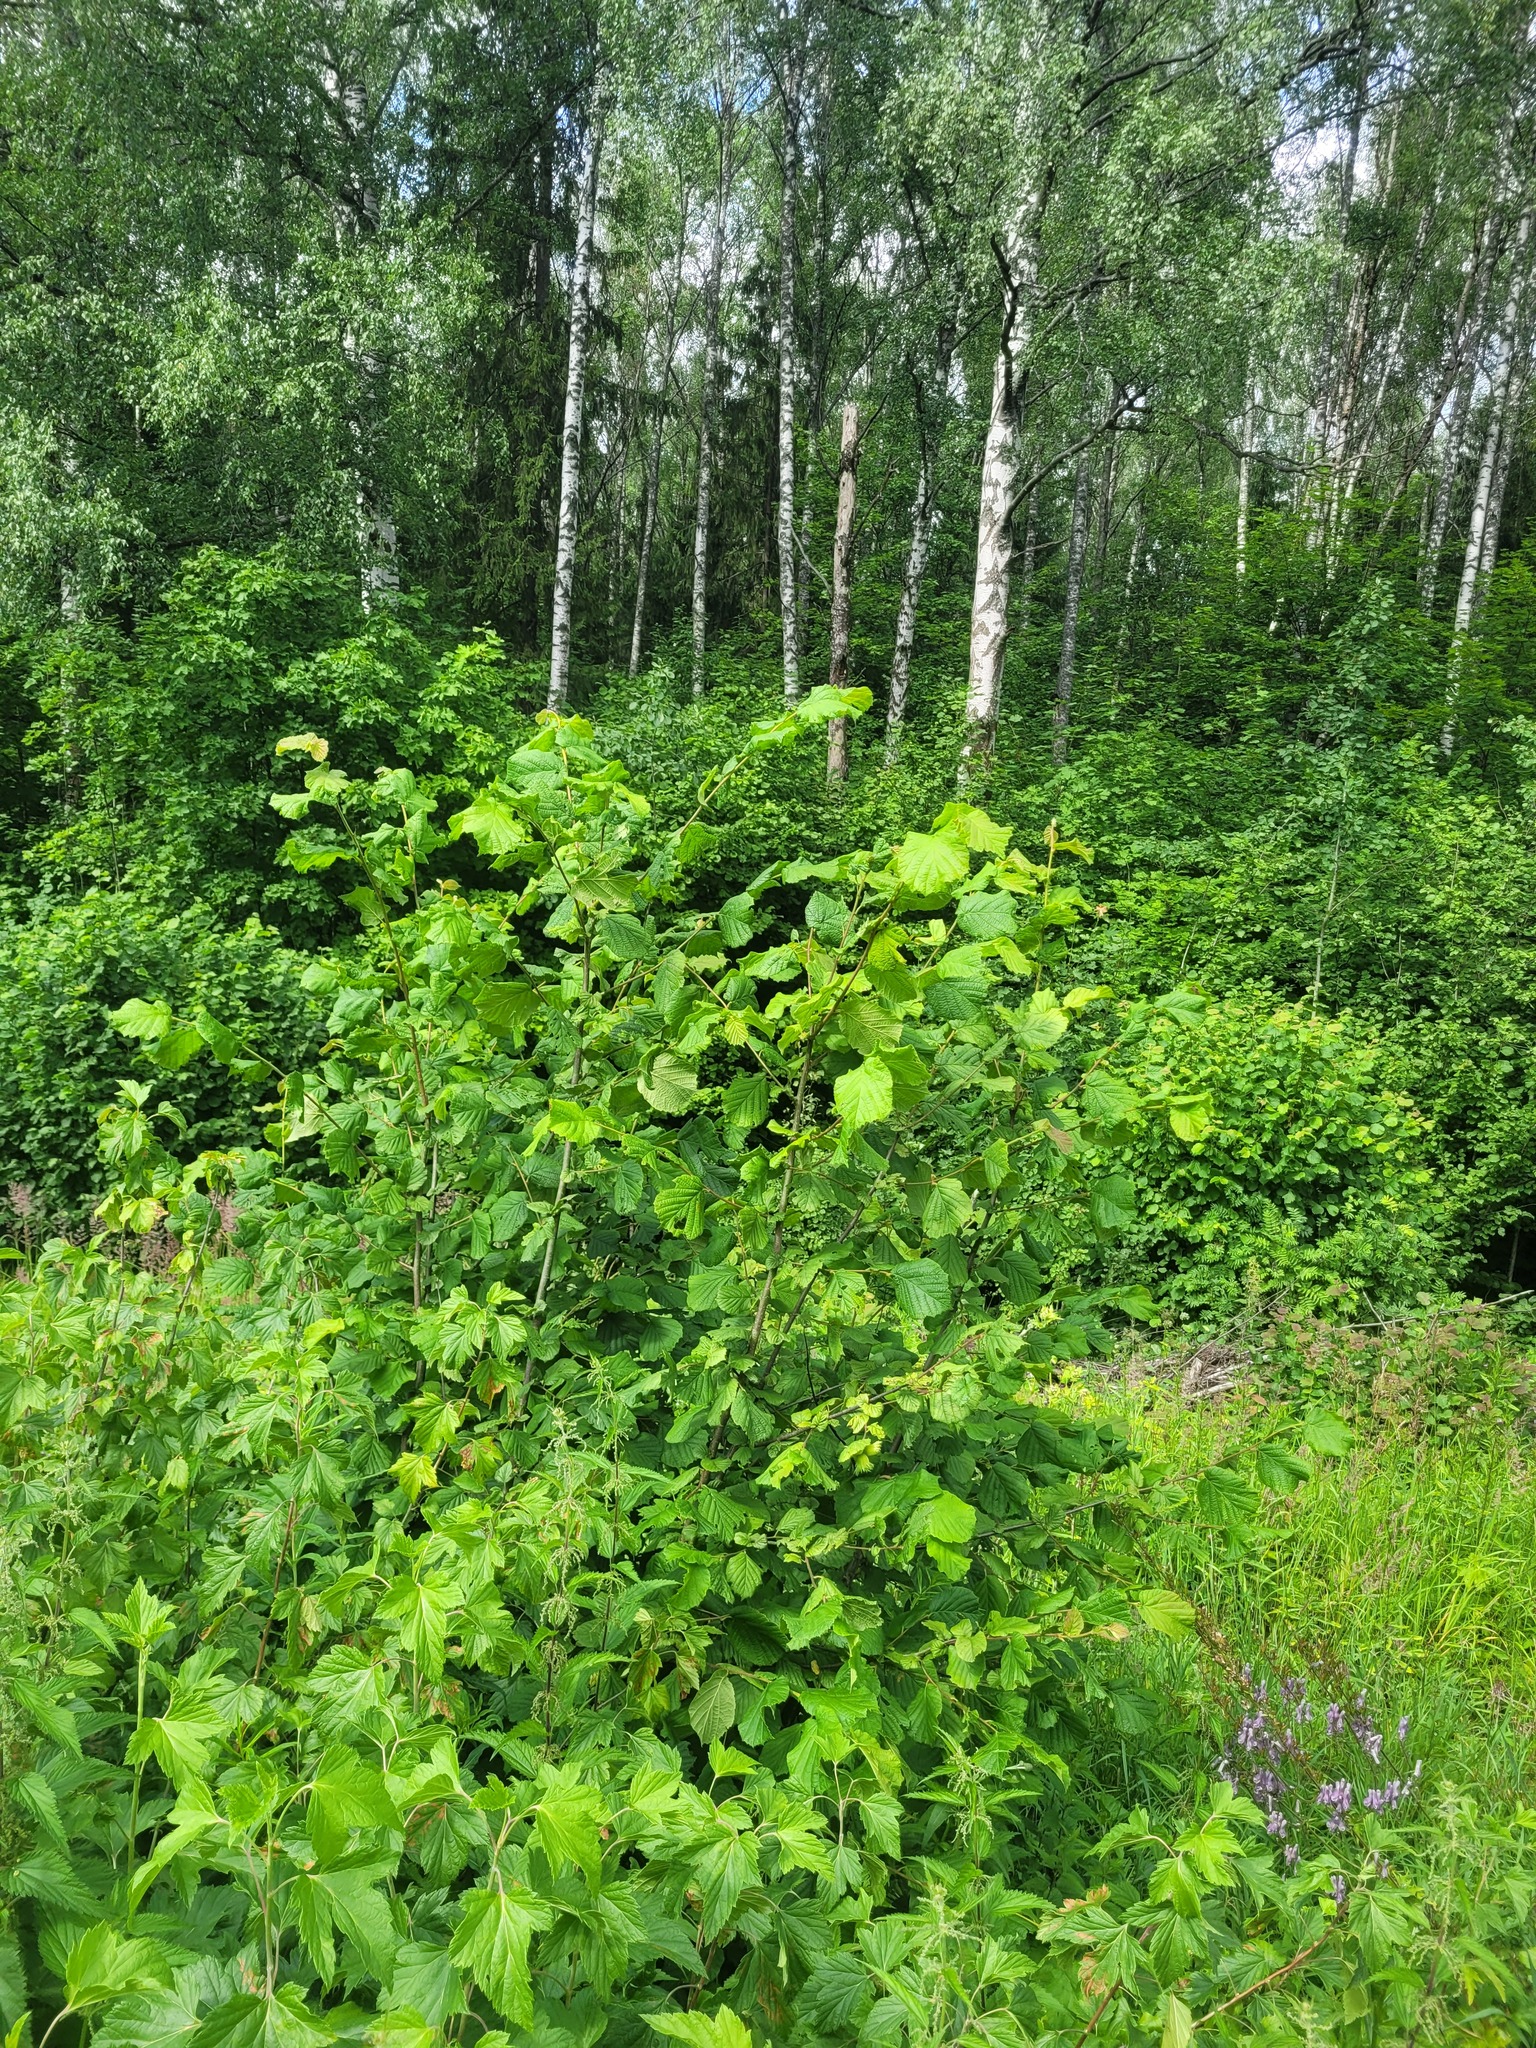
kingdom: Plantae
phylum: Tracheophyta
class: Magnoliopsida
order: Fagales
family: Betulaceae
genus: Corylus
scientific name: Corylus avellana
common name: European hazel
